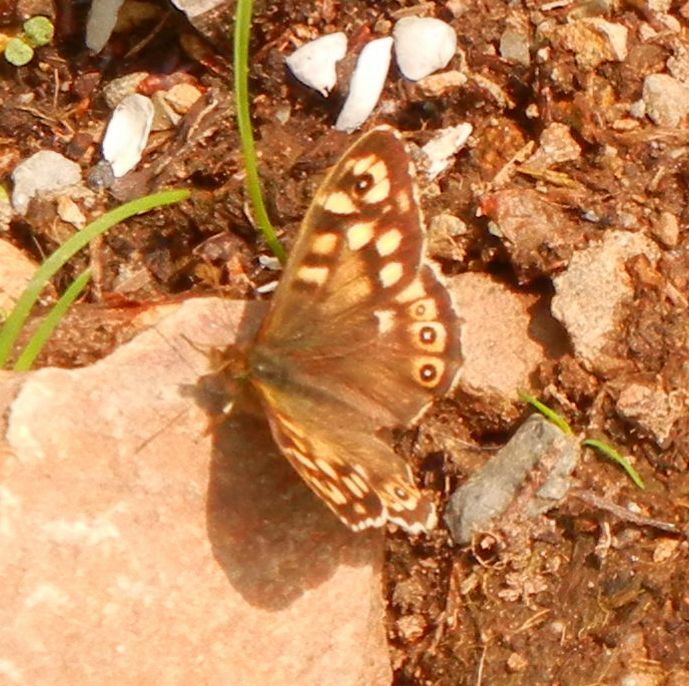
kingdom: Animalia
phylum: Arthropoda
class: Insecta
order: Lepidoptera
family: Nymphalidae
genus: Pararge
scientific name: Pararge aegeria
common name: Speckled wood
